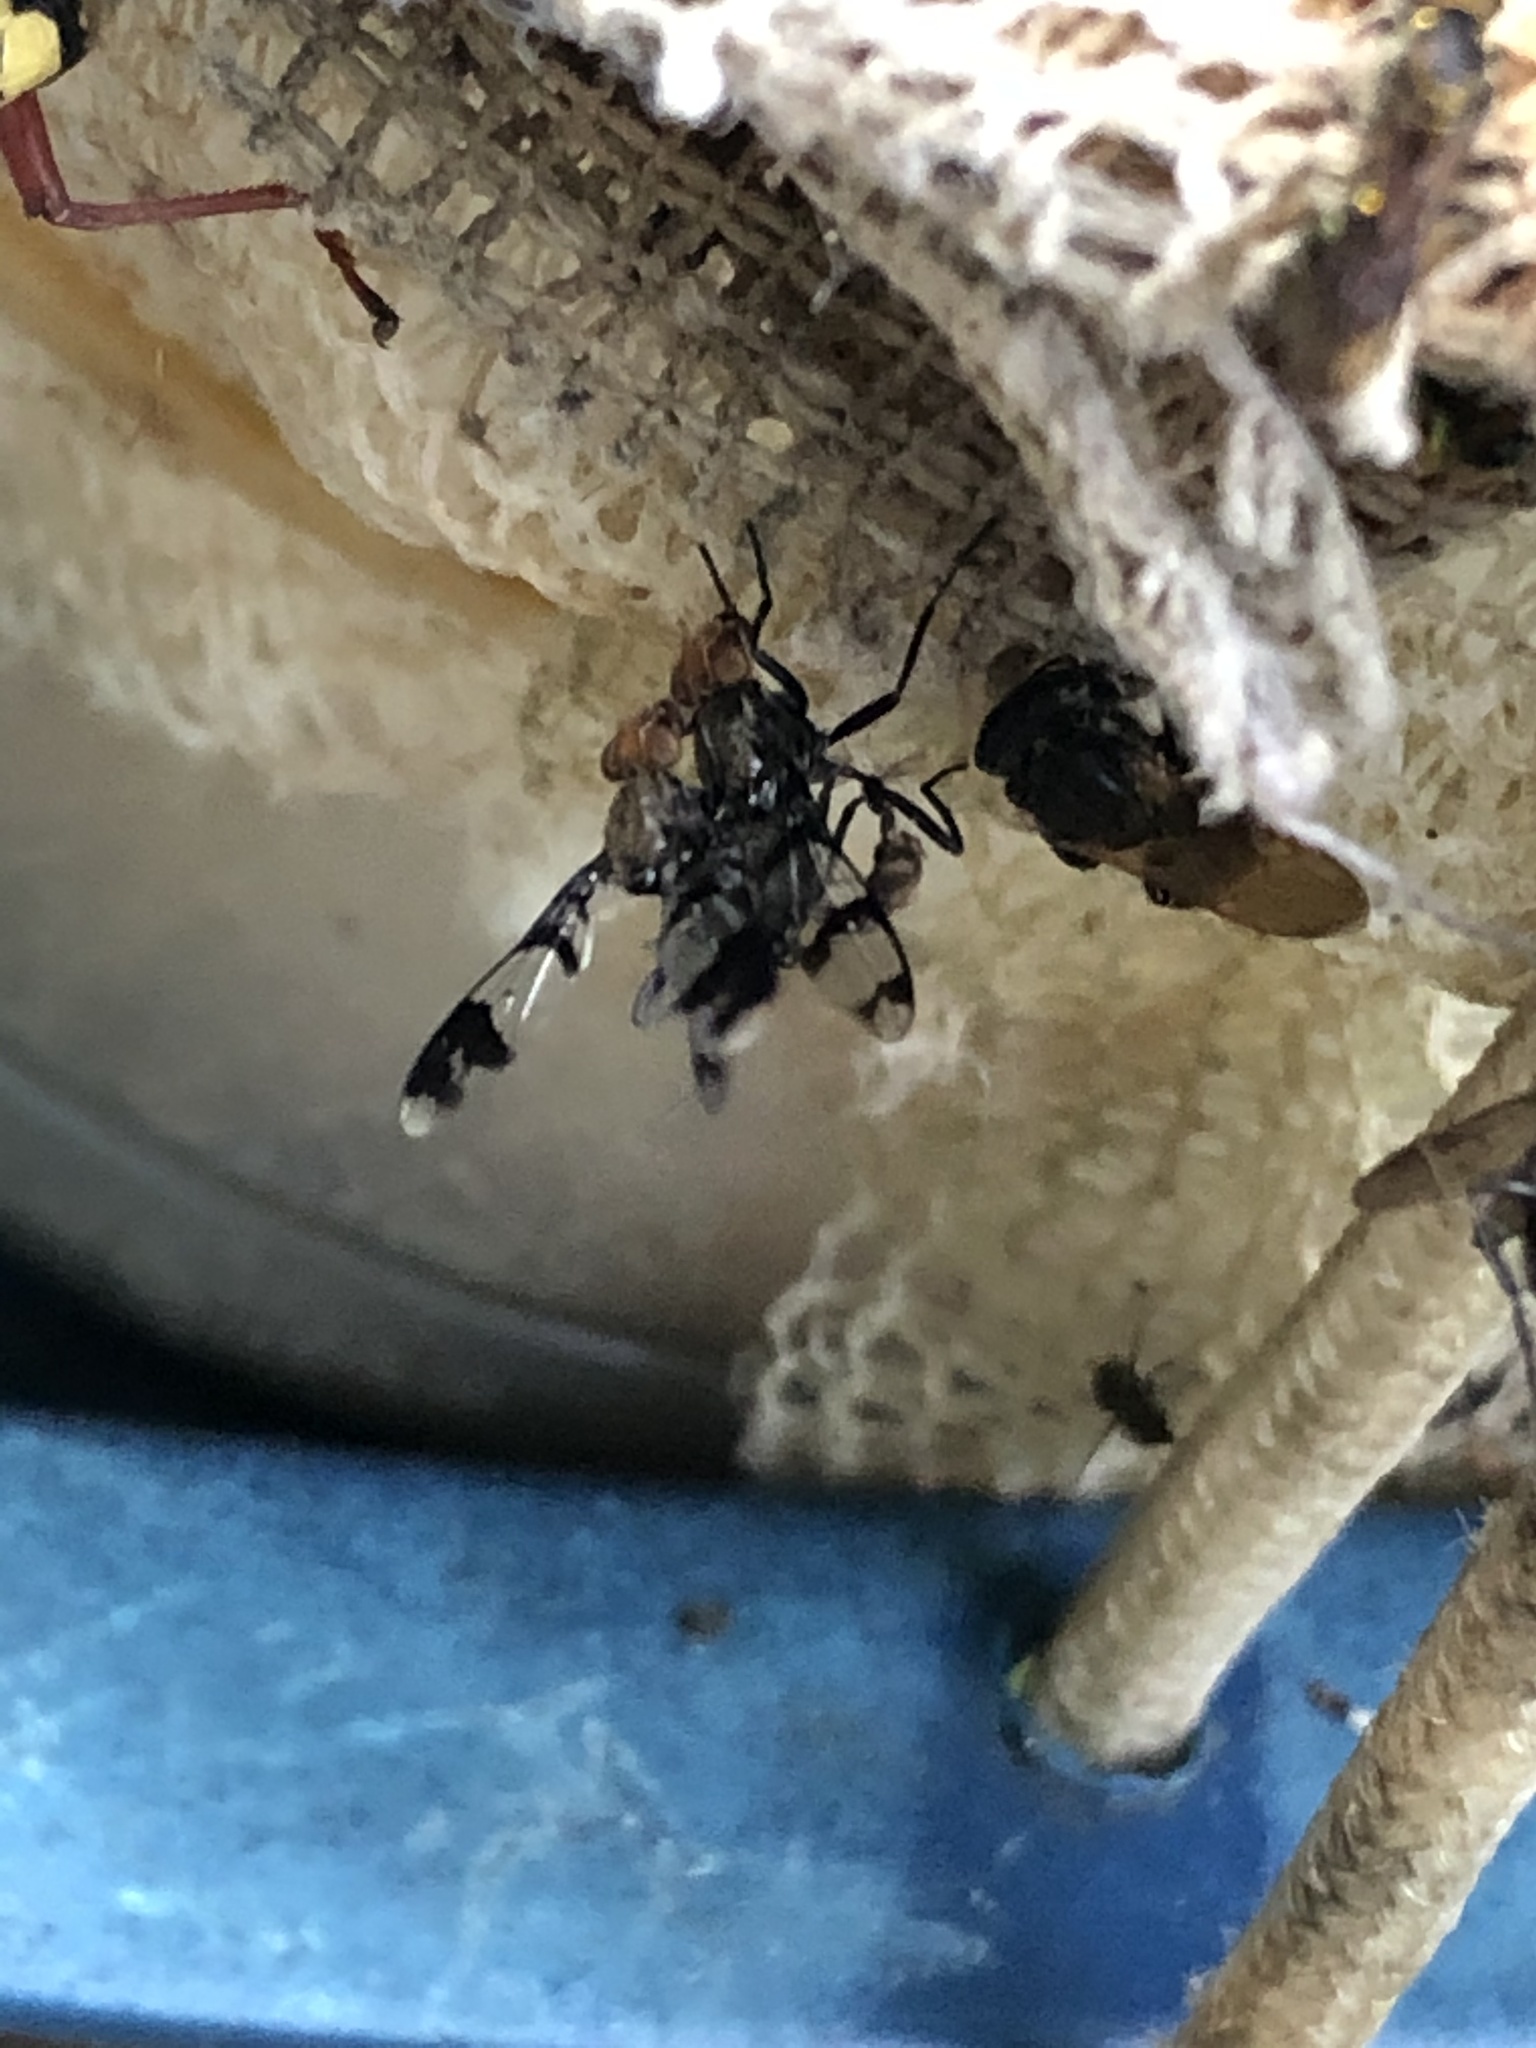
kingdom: Animalia
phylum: Arthropoda
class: Insecta
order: Diptera
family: Richardiidae
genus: Automola
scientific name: Automola atomaria
